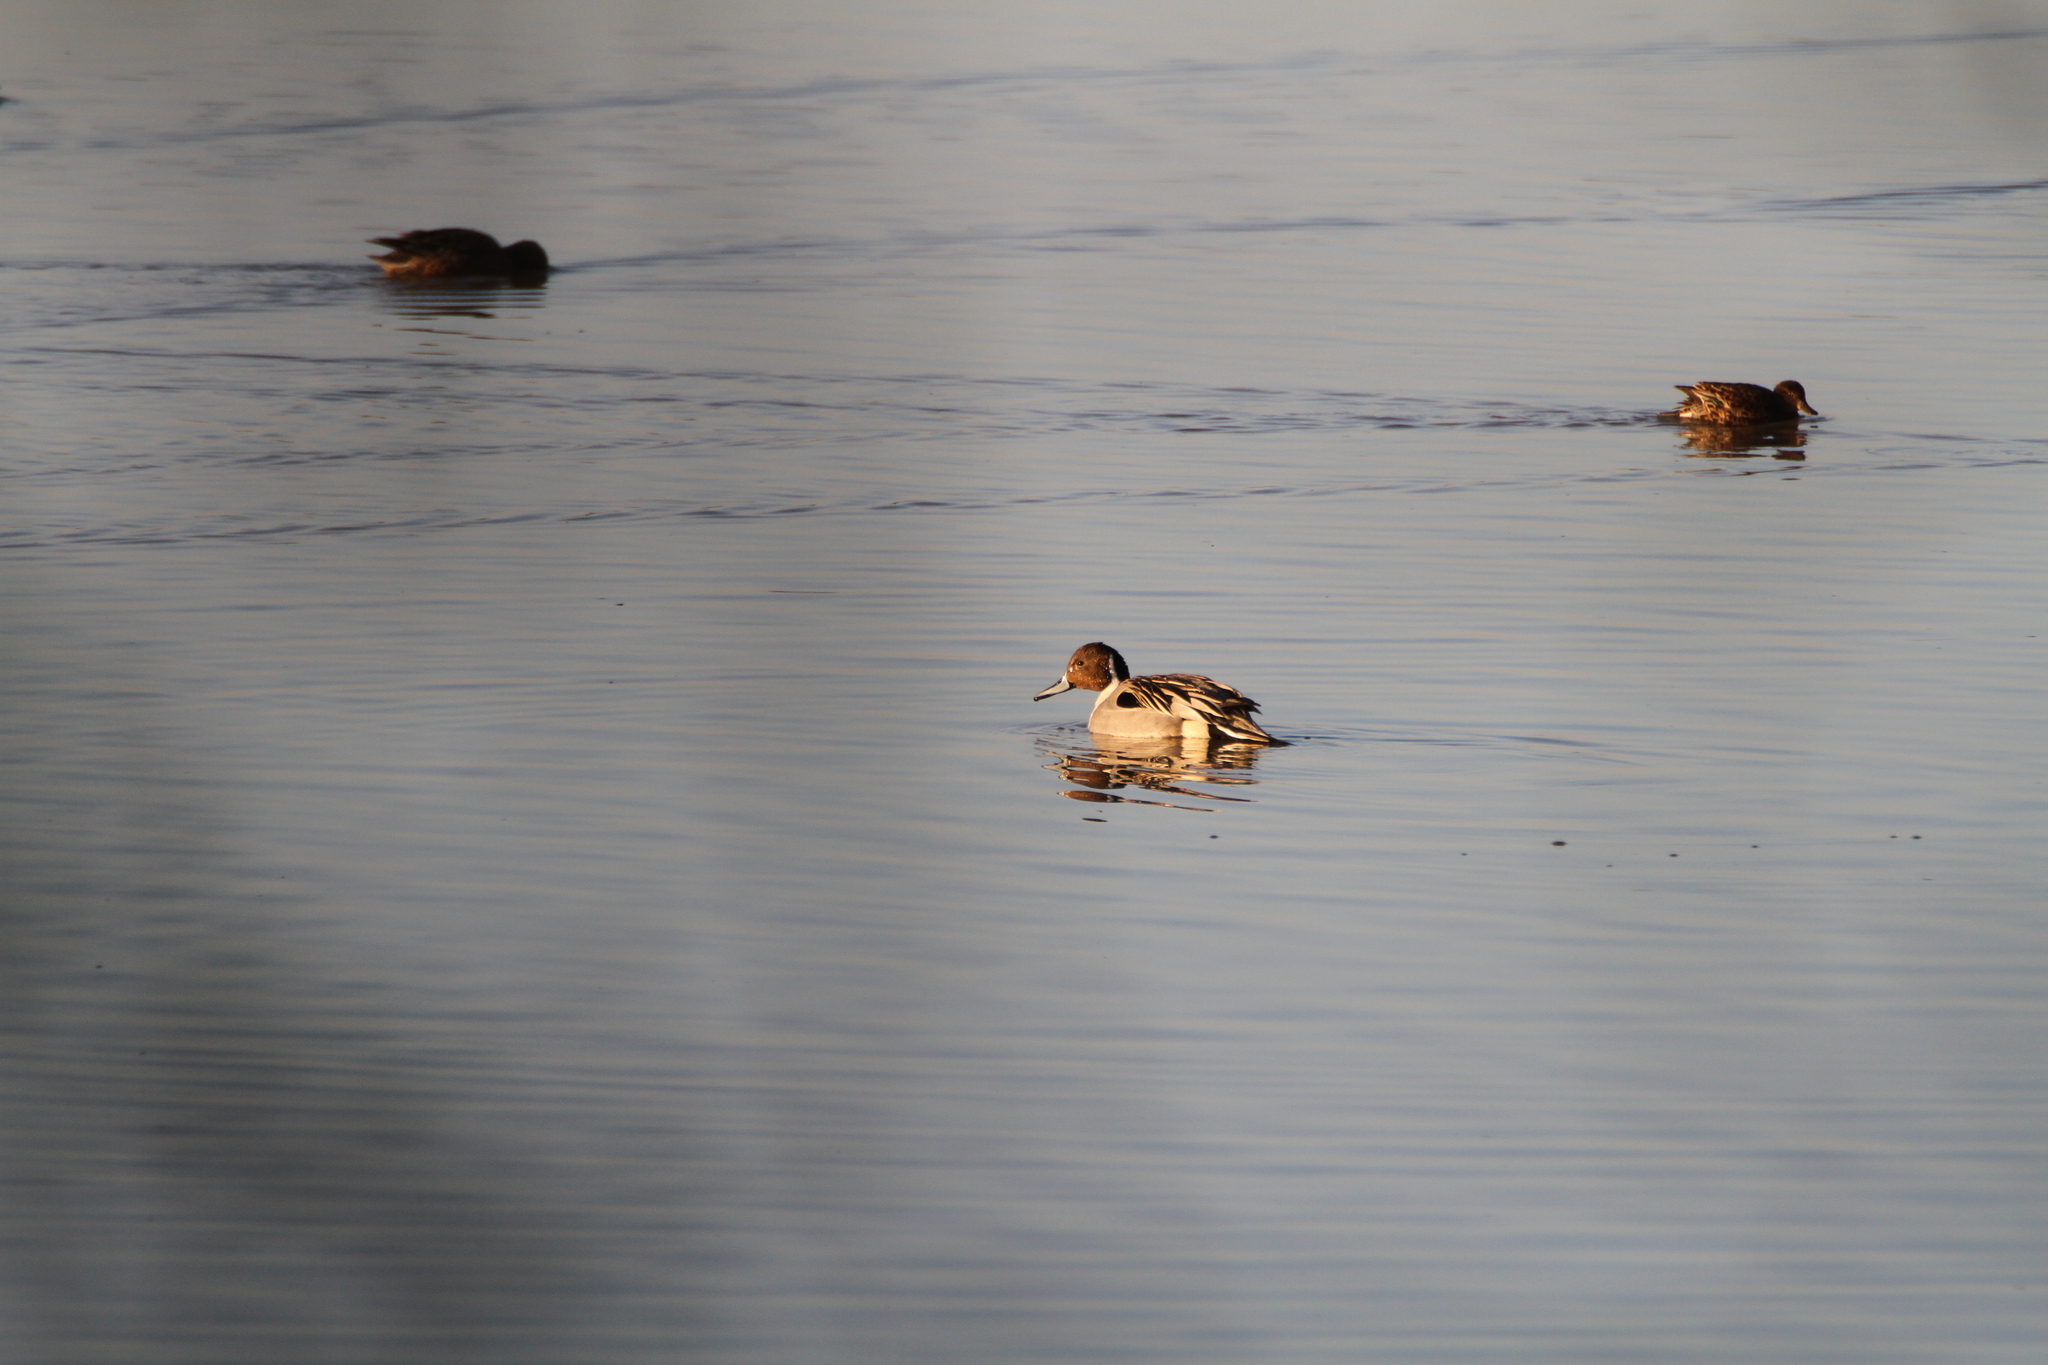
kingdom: Animalia
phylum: Chordata
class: Aves
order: Anseriformes
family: Anatidae
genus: Anas
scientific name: Anas acuta
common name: Northern pintail
